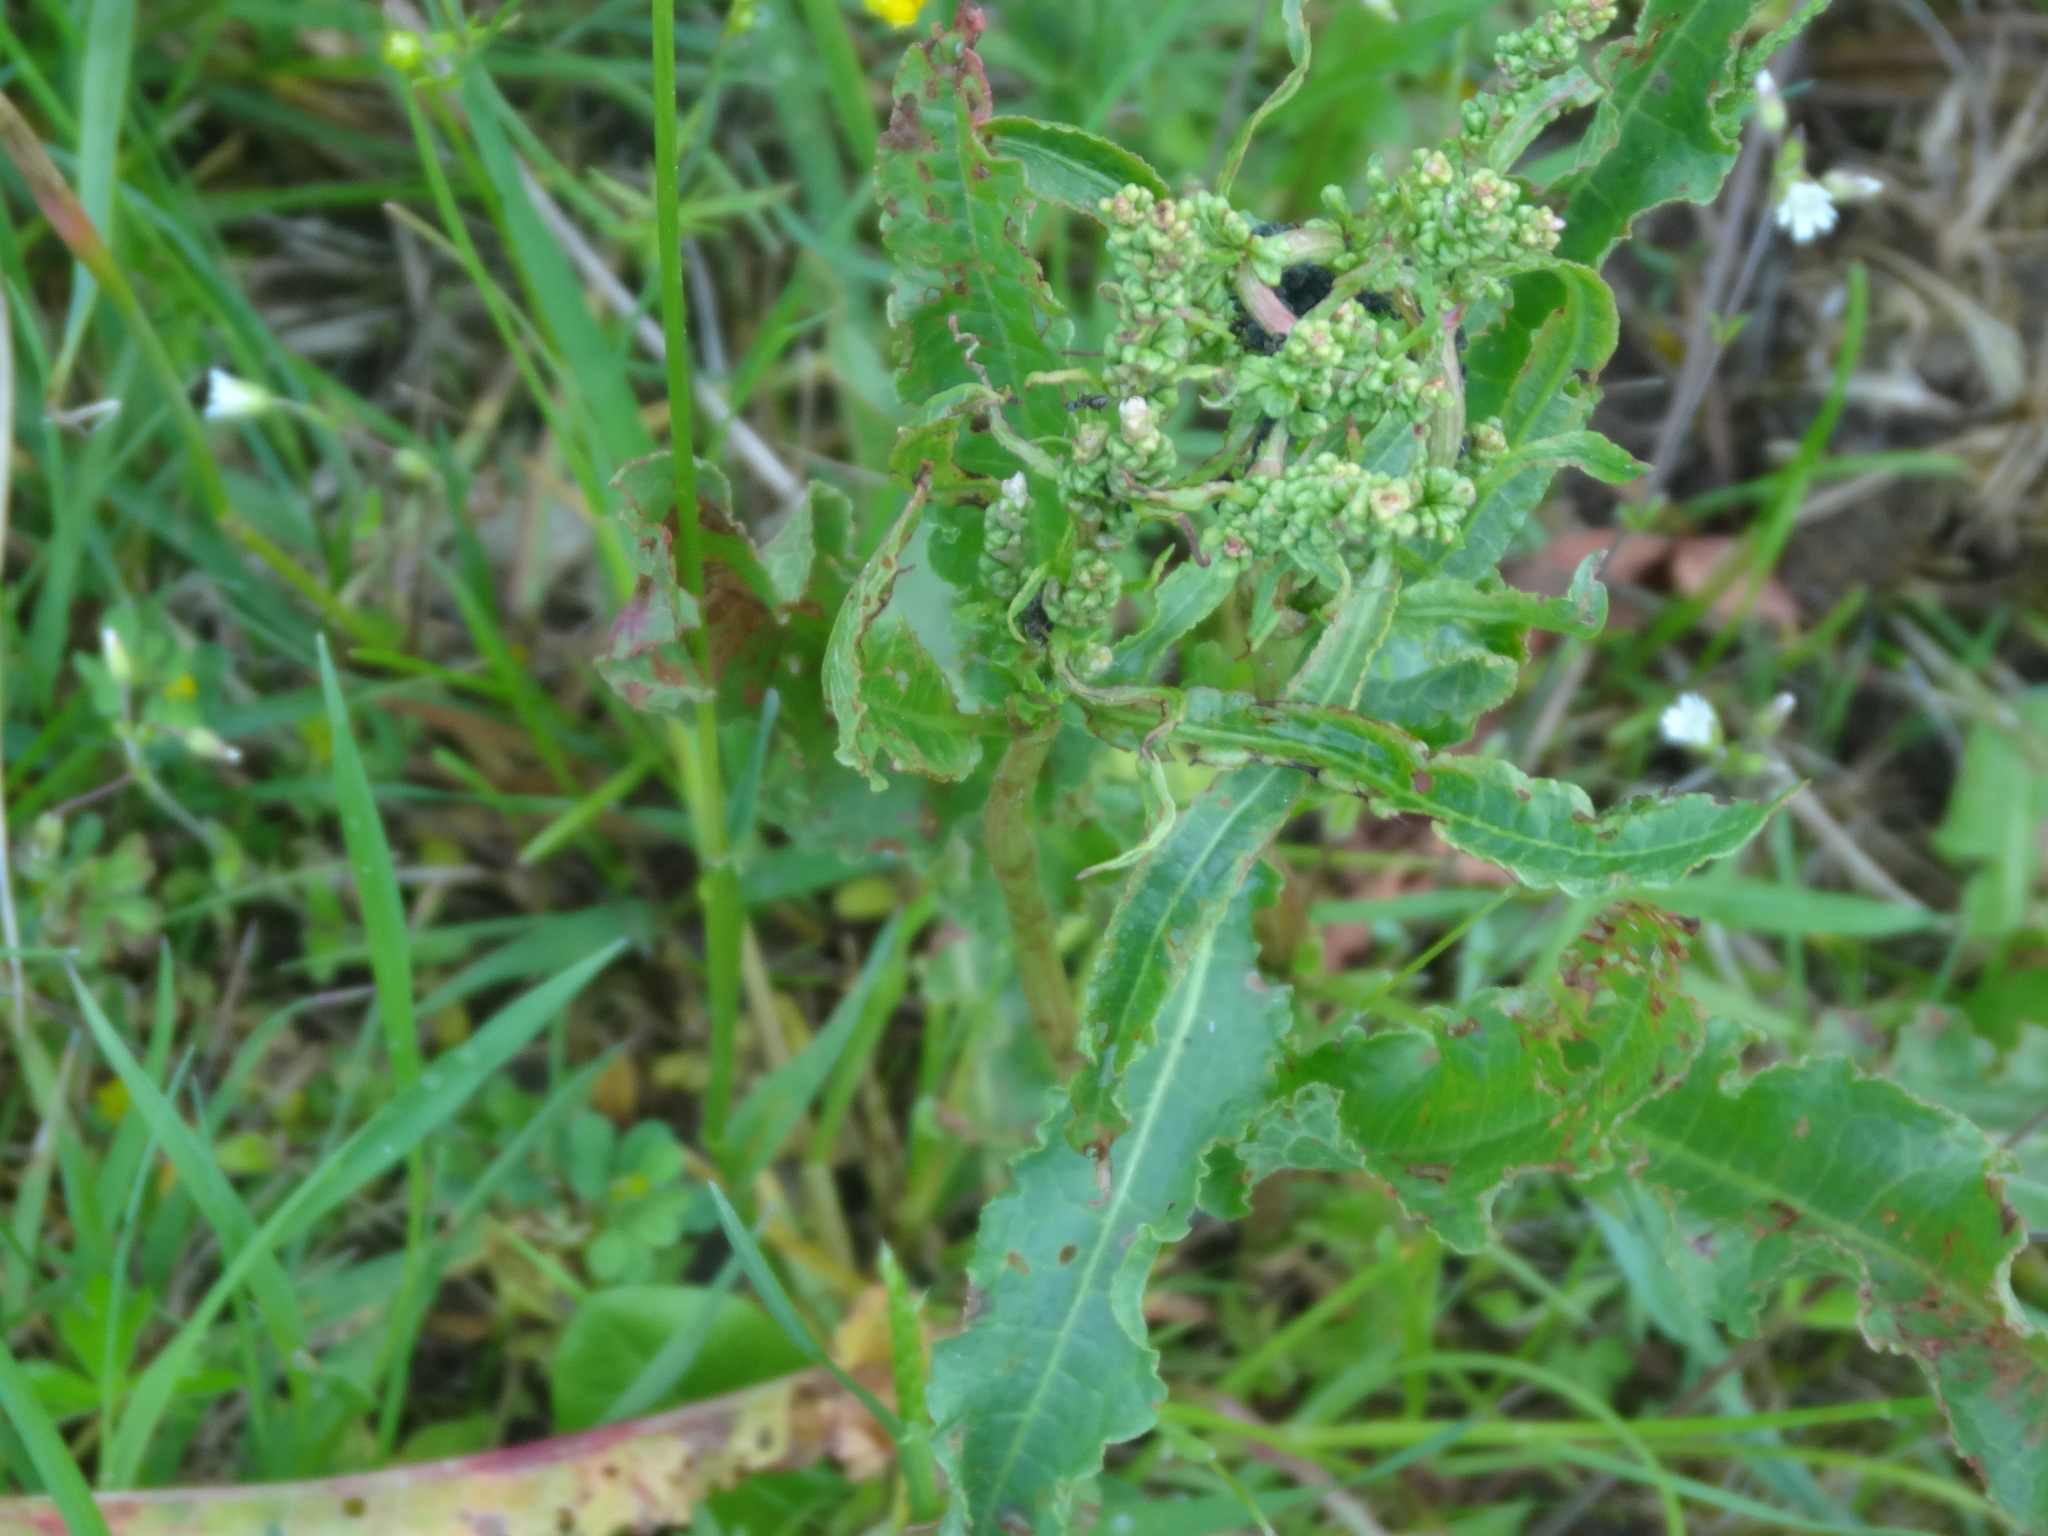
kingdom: Plantae
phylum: Tracheophyta
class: Magnoliopsida
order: Caryophyllales
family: Polygonaceae
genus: Rumex
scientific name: Rumex crispus
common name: Curled dock
